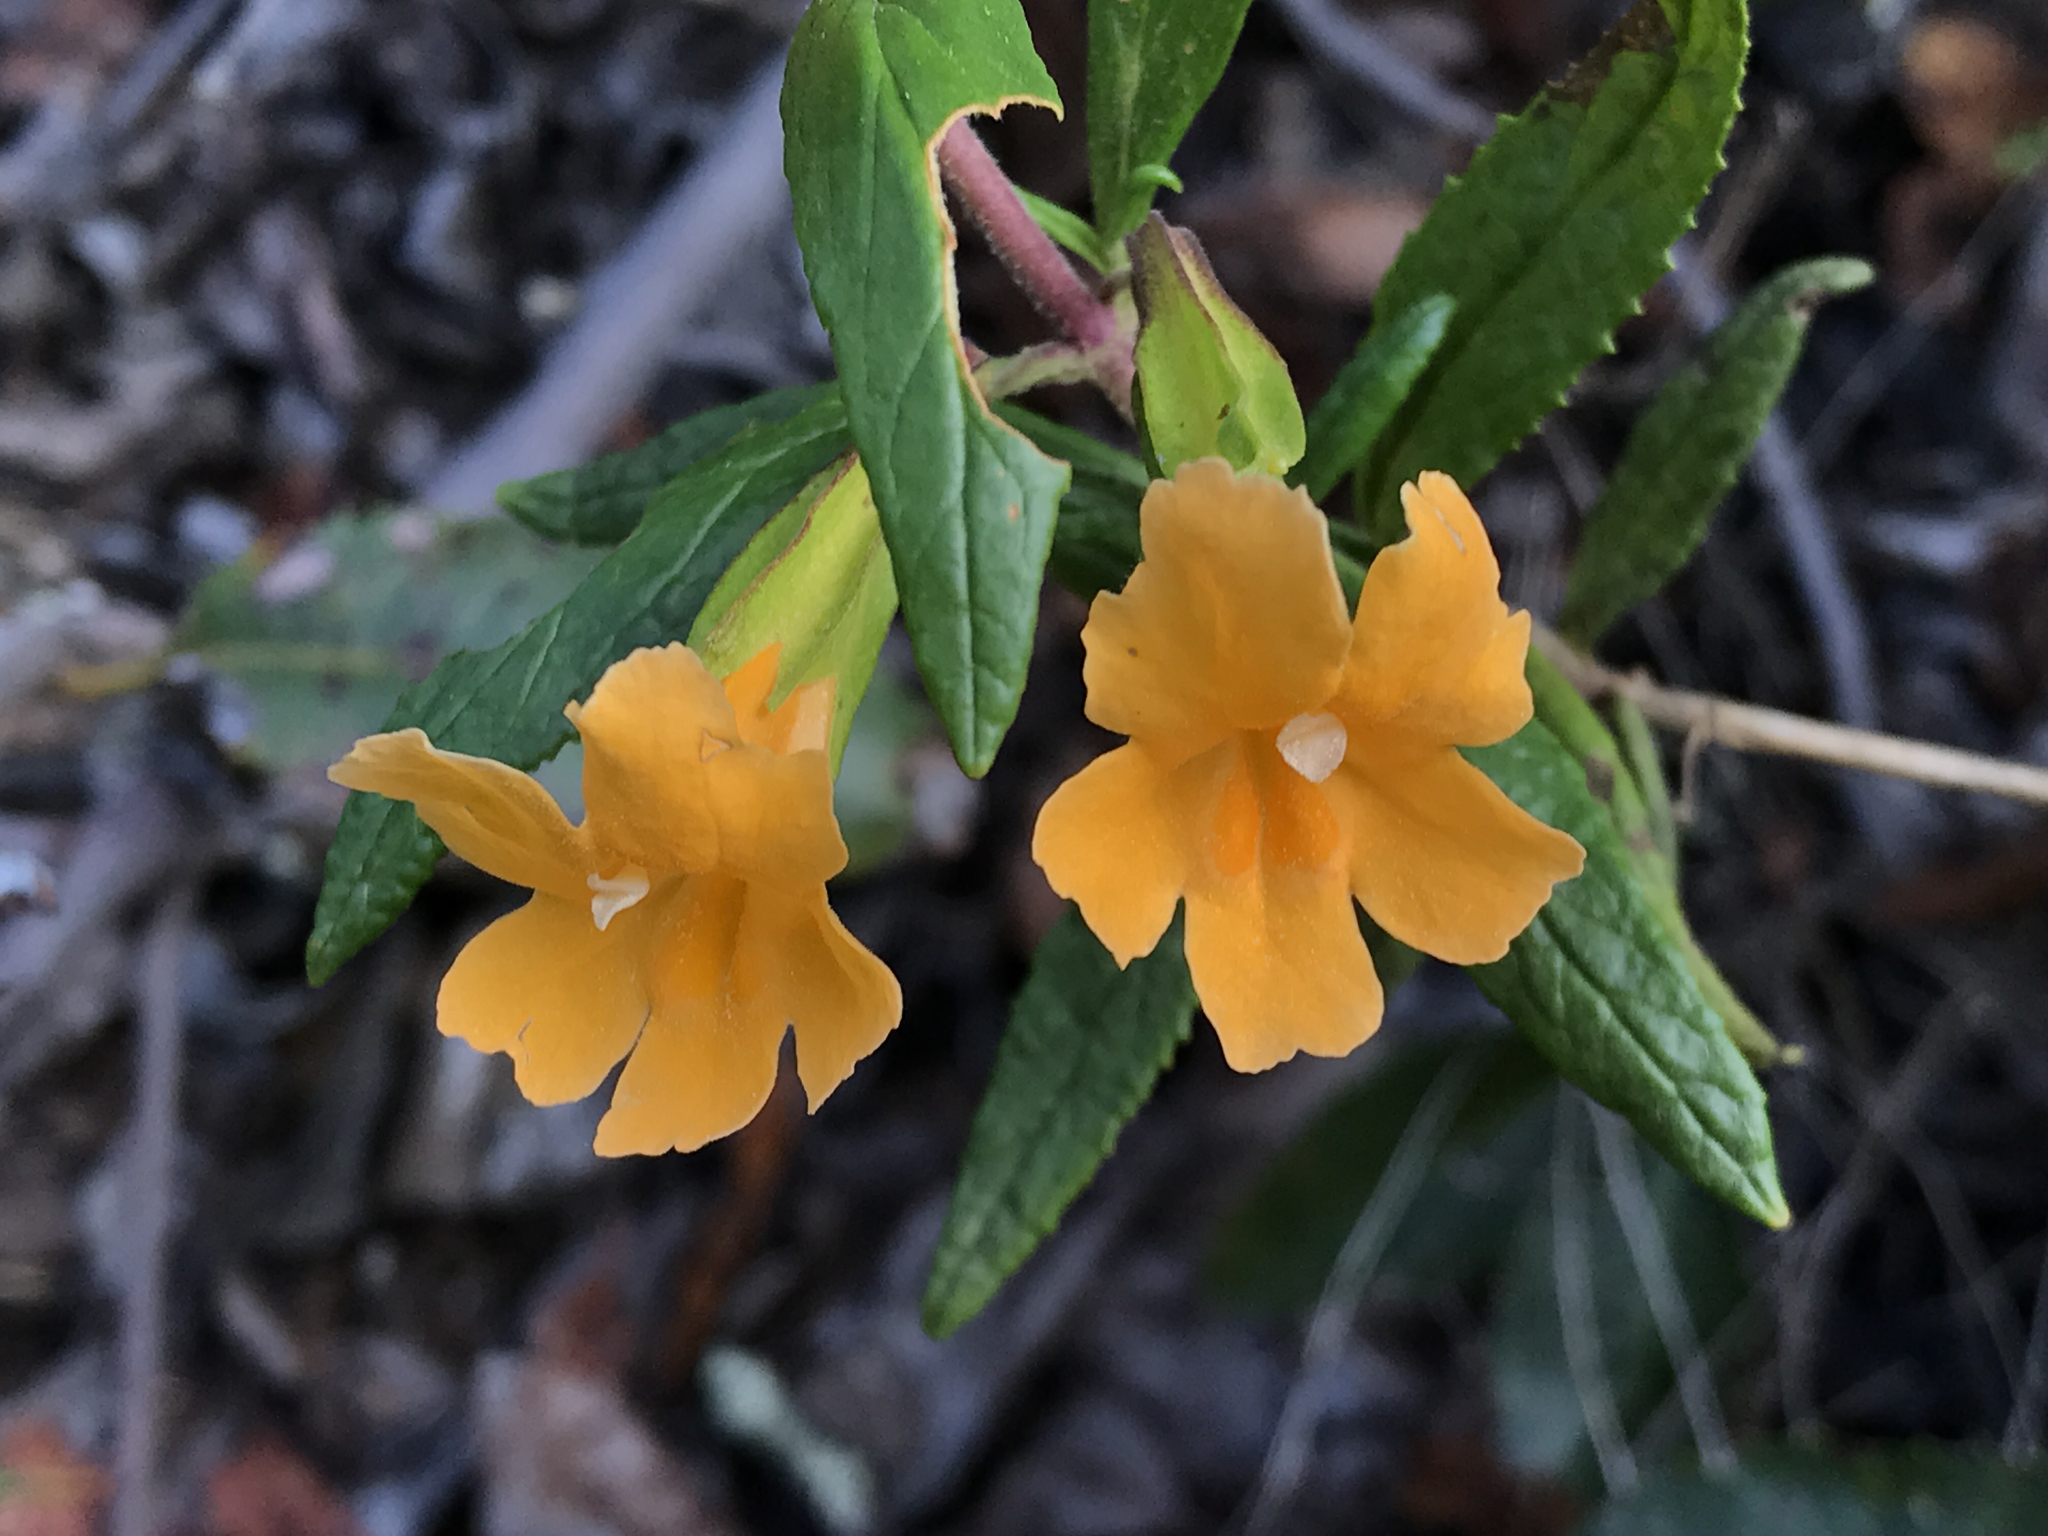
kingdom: Plantae
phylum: Tracheophyta
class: Magnoliopsida
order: Lamiales
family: Phrymaceae
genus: Diplacus
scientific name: Diplacus aurantiacus
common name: Bush monkey-flower
